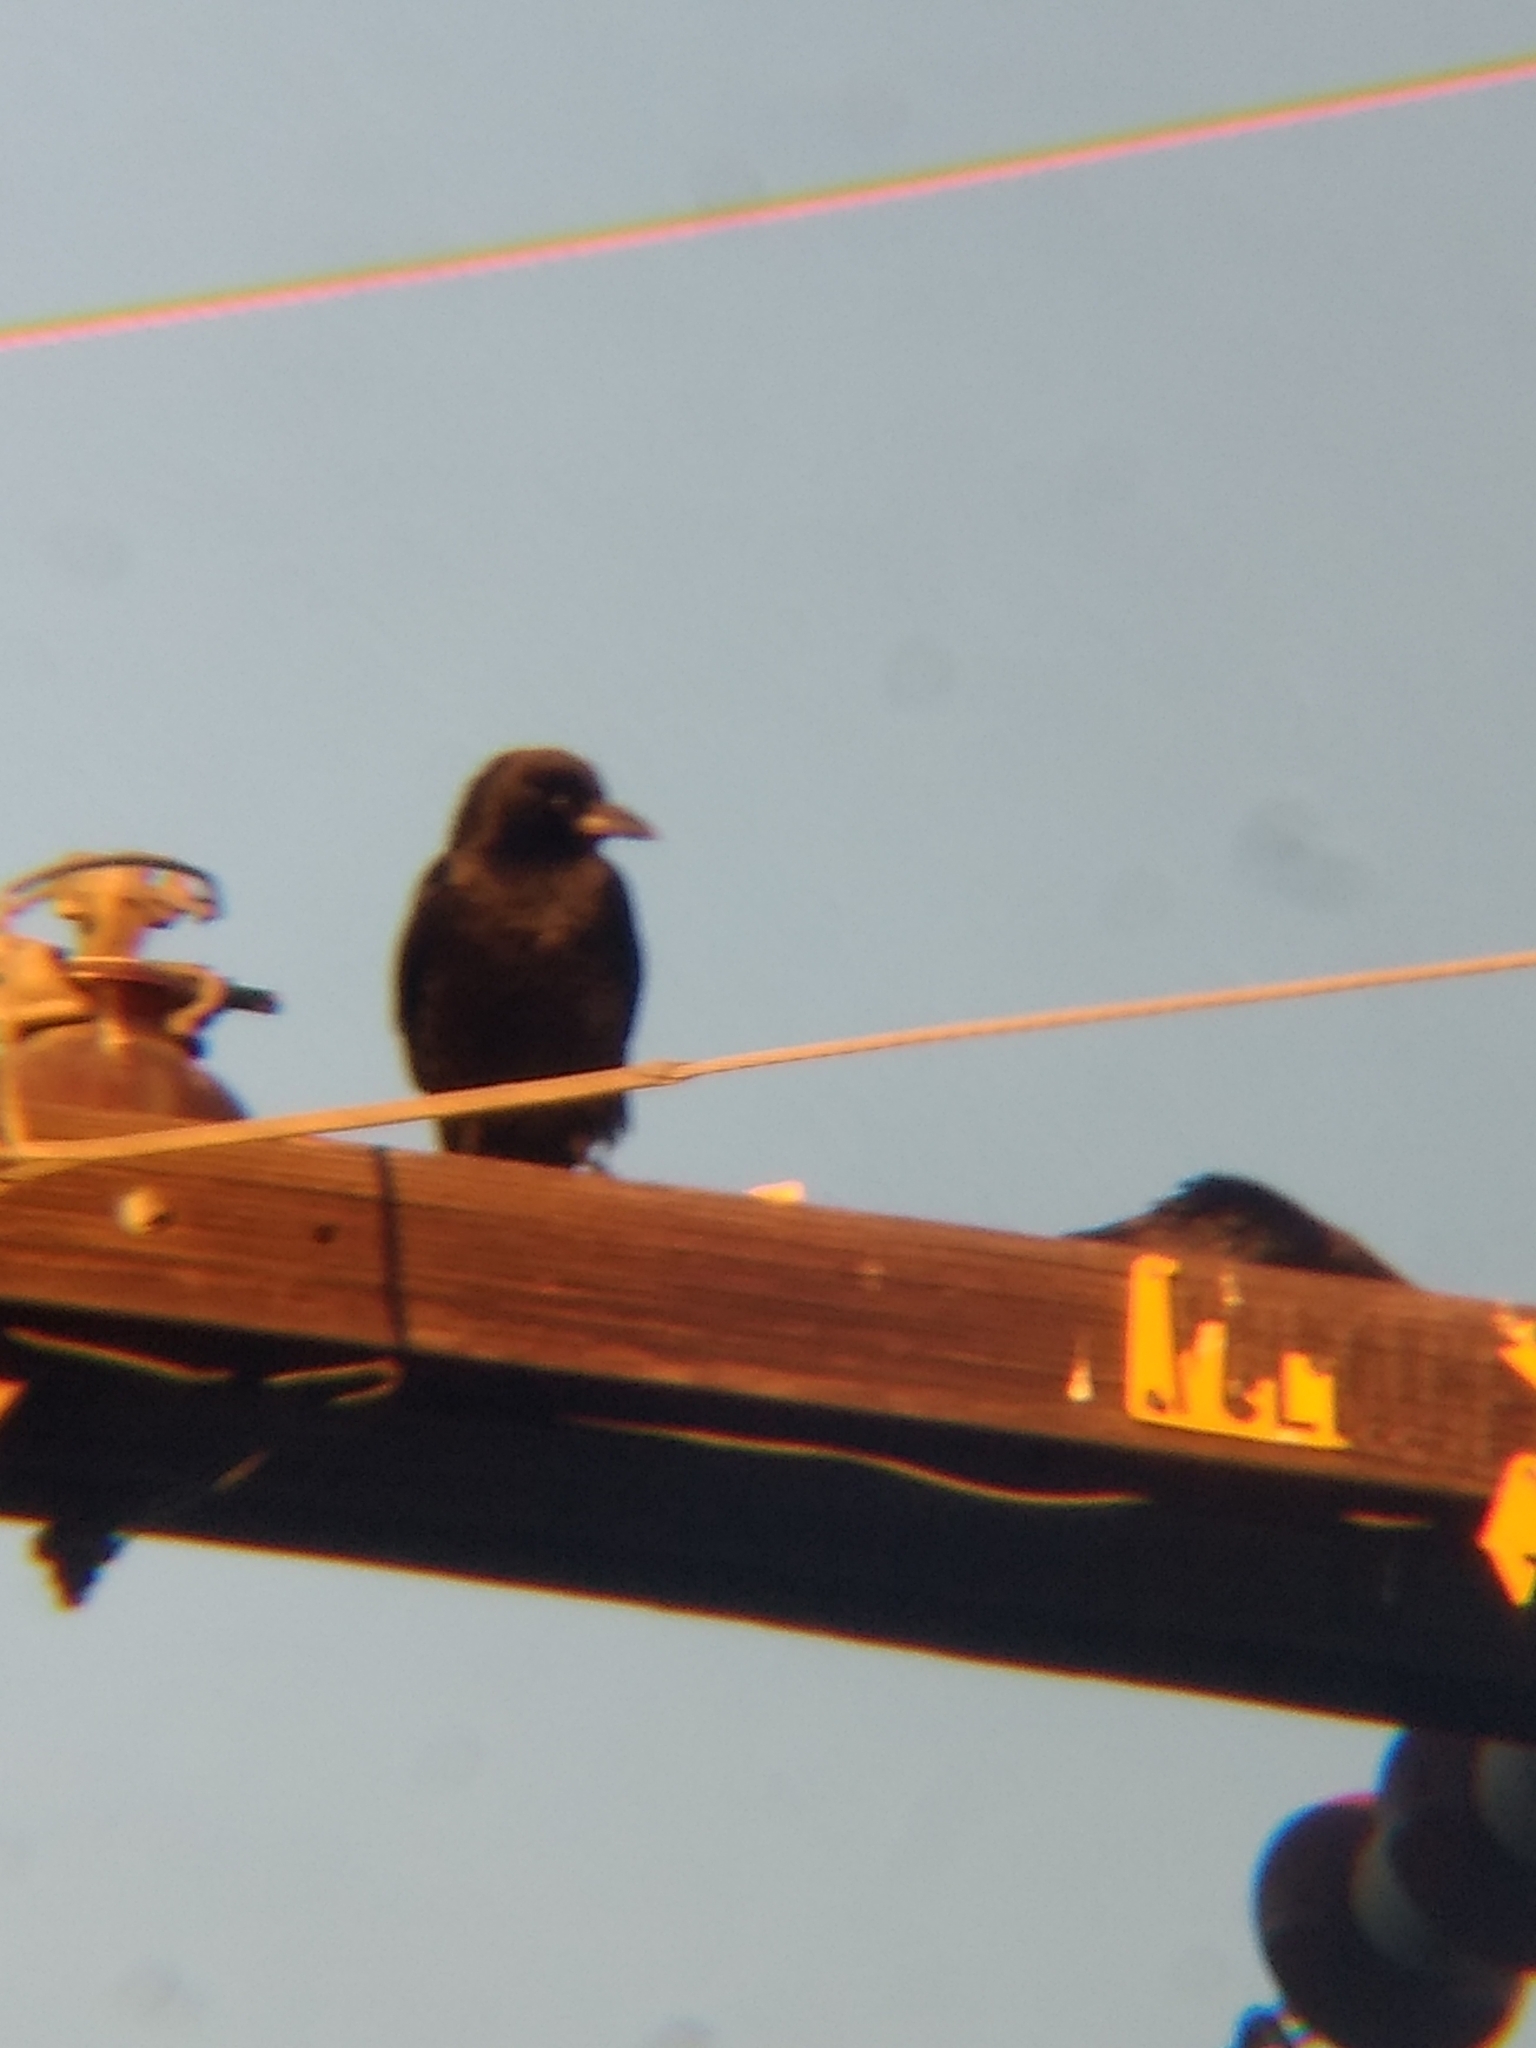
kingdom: Animalia
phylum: Chordata
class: Aves
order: Passeriformes
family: Corvidae
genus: Corvus
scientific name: Corvus brachyrhynchos
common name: American crow
